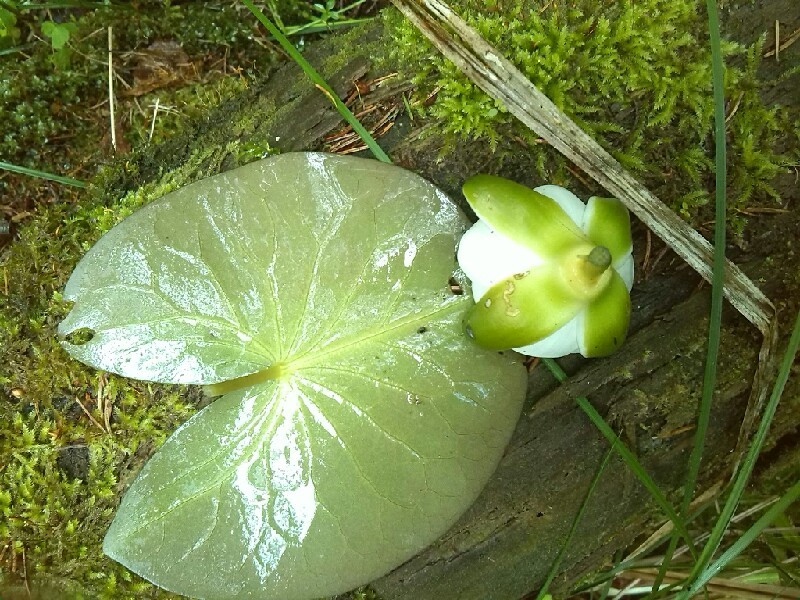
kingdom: Plantae
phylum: Tracheophyta
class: Magnoliopsida
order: Nymphaeales
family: Nymphaeaceae
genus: Nymphaea
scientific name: Nymphaea candida
